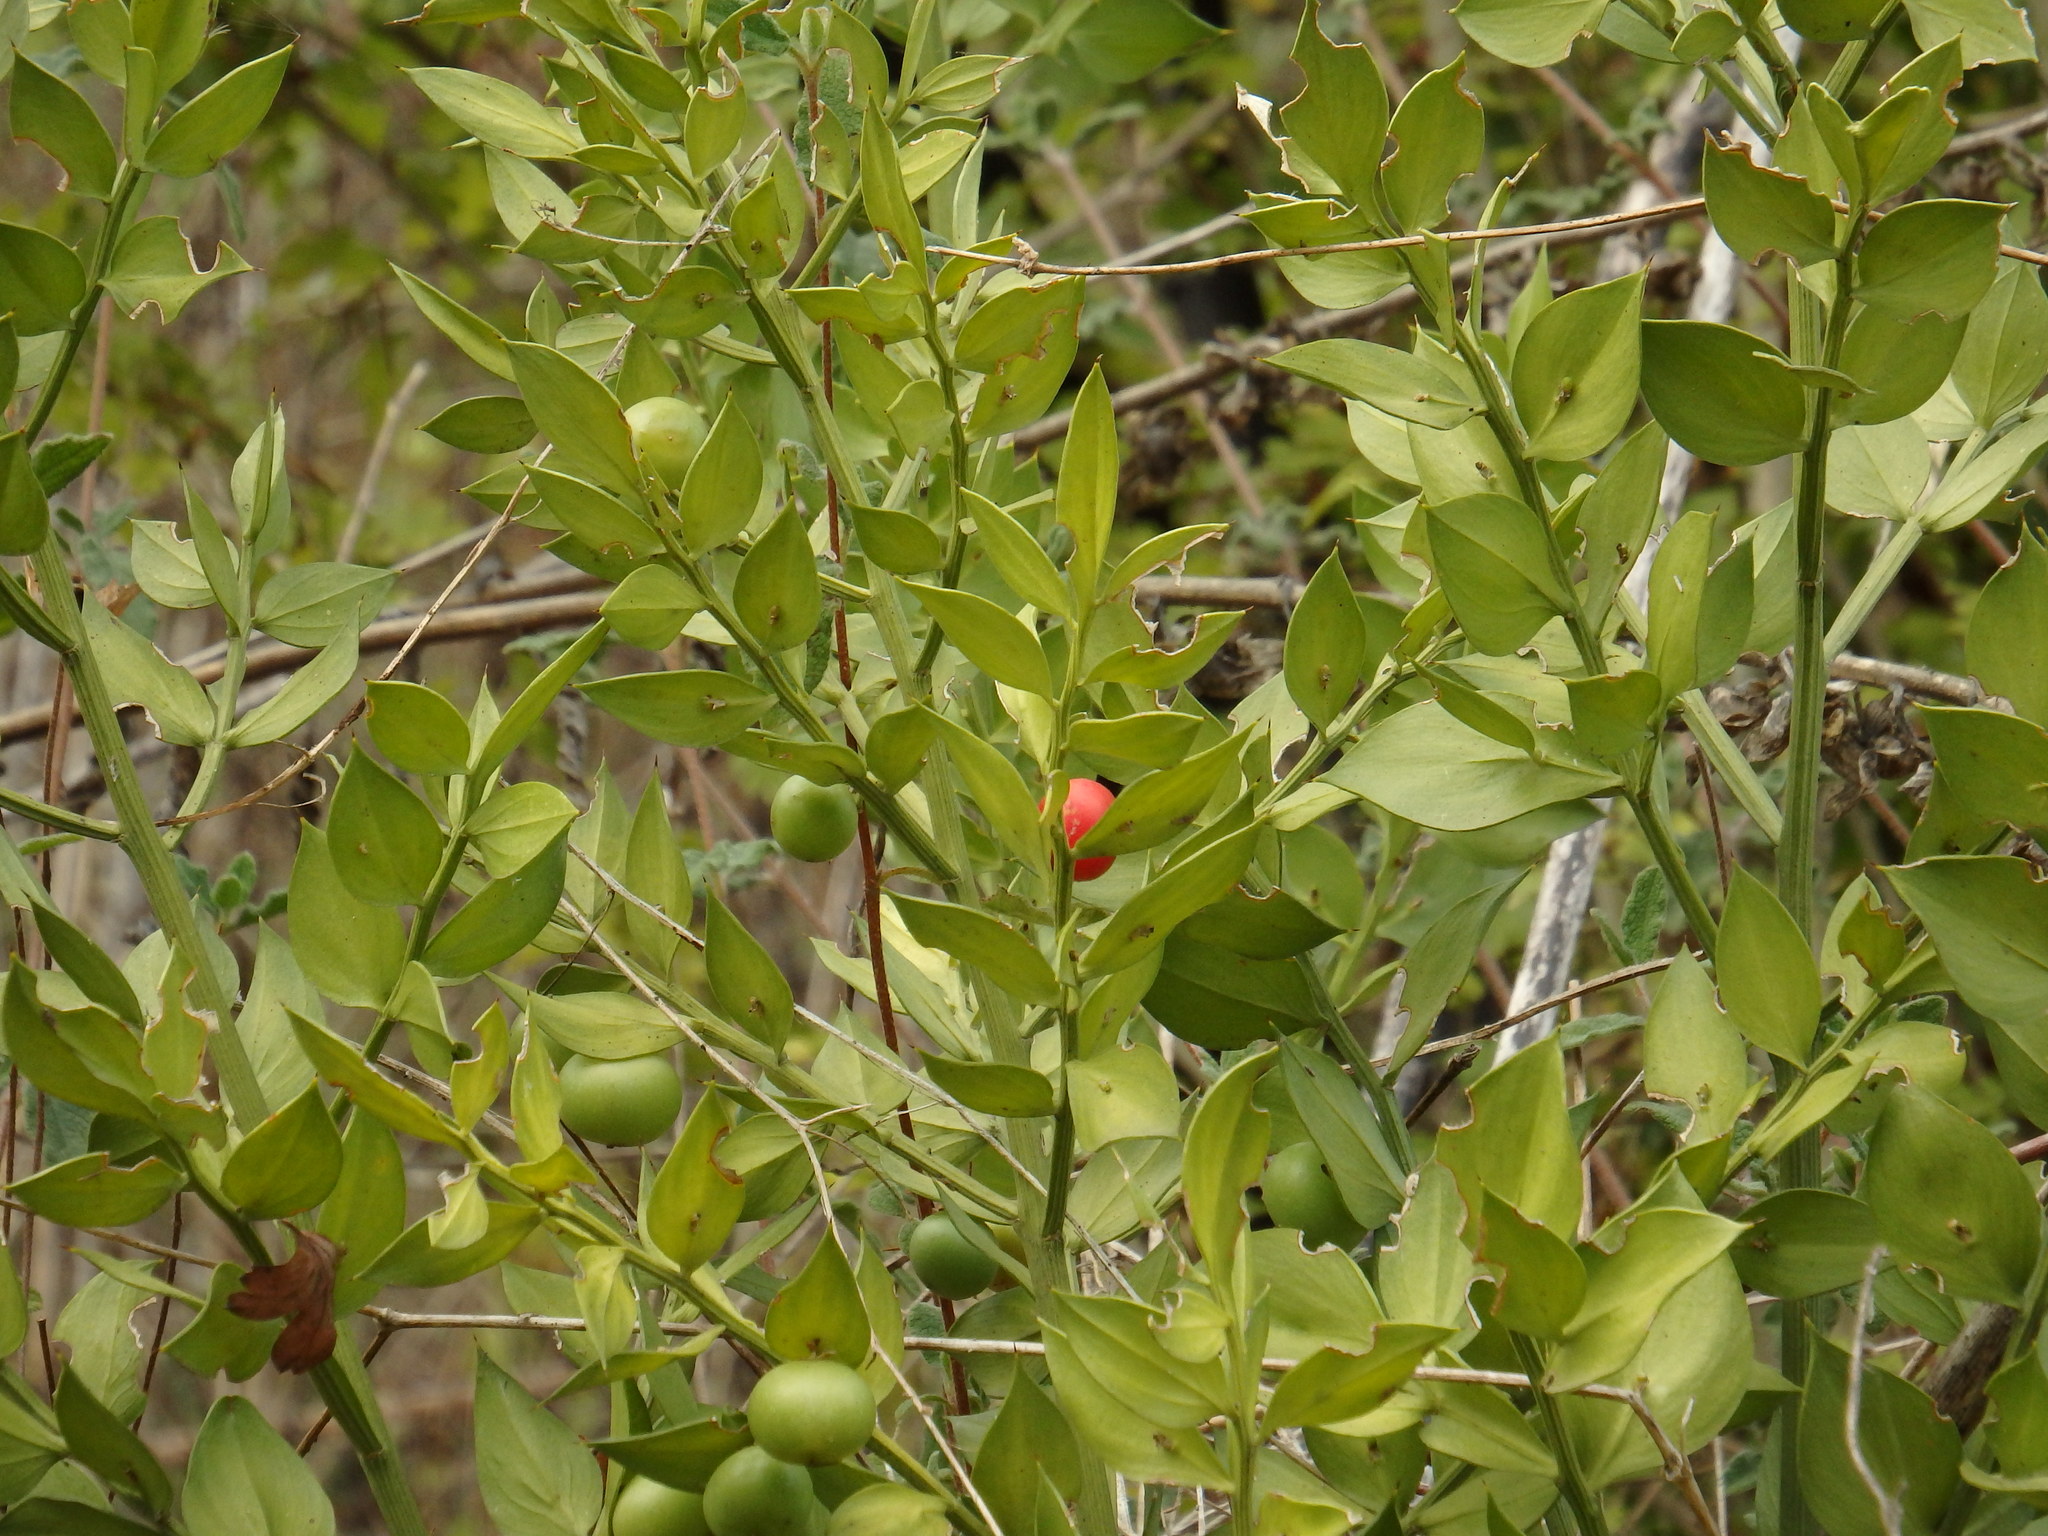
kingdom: Plantae
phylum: Tracheophyta
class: Liliopsida
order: Asparagales
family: Asparagaceae
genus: Ruscus
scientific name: Ruscus aculeatus
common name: Butcher's-broom
